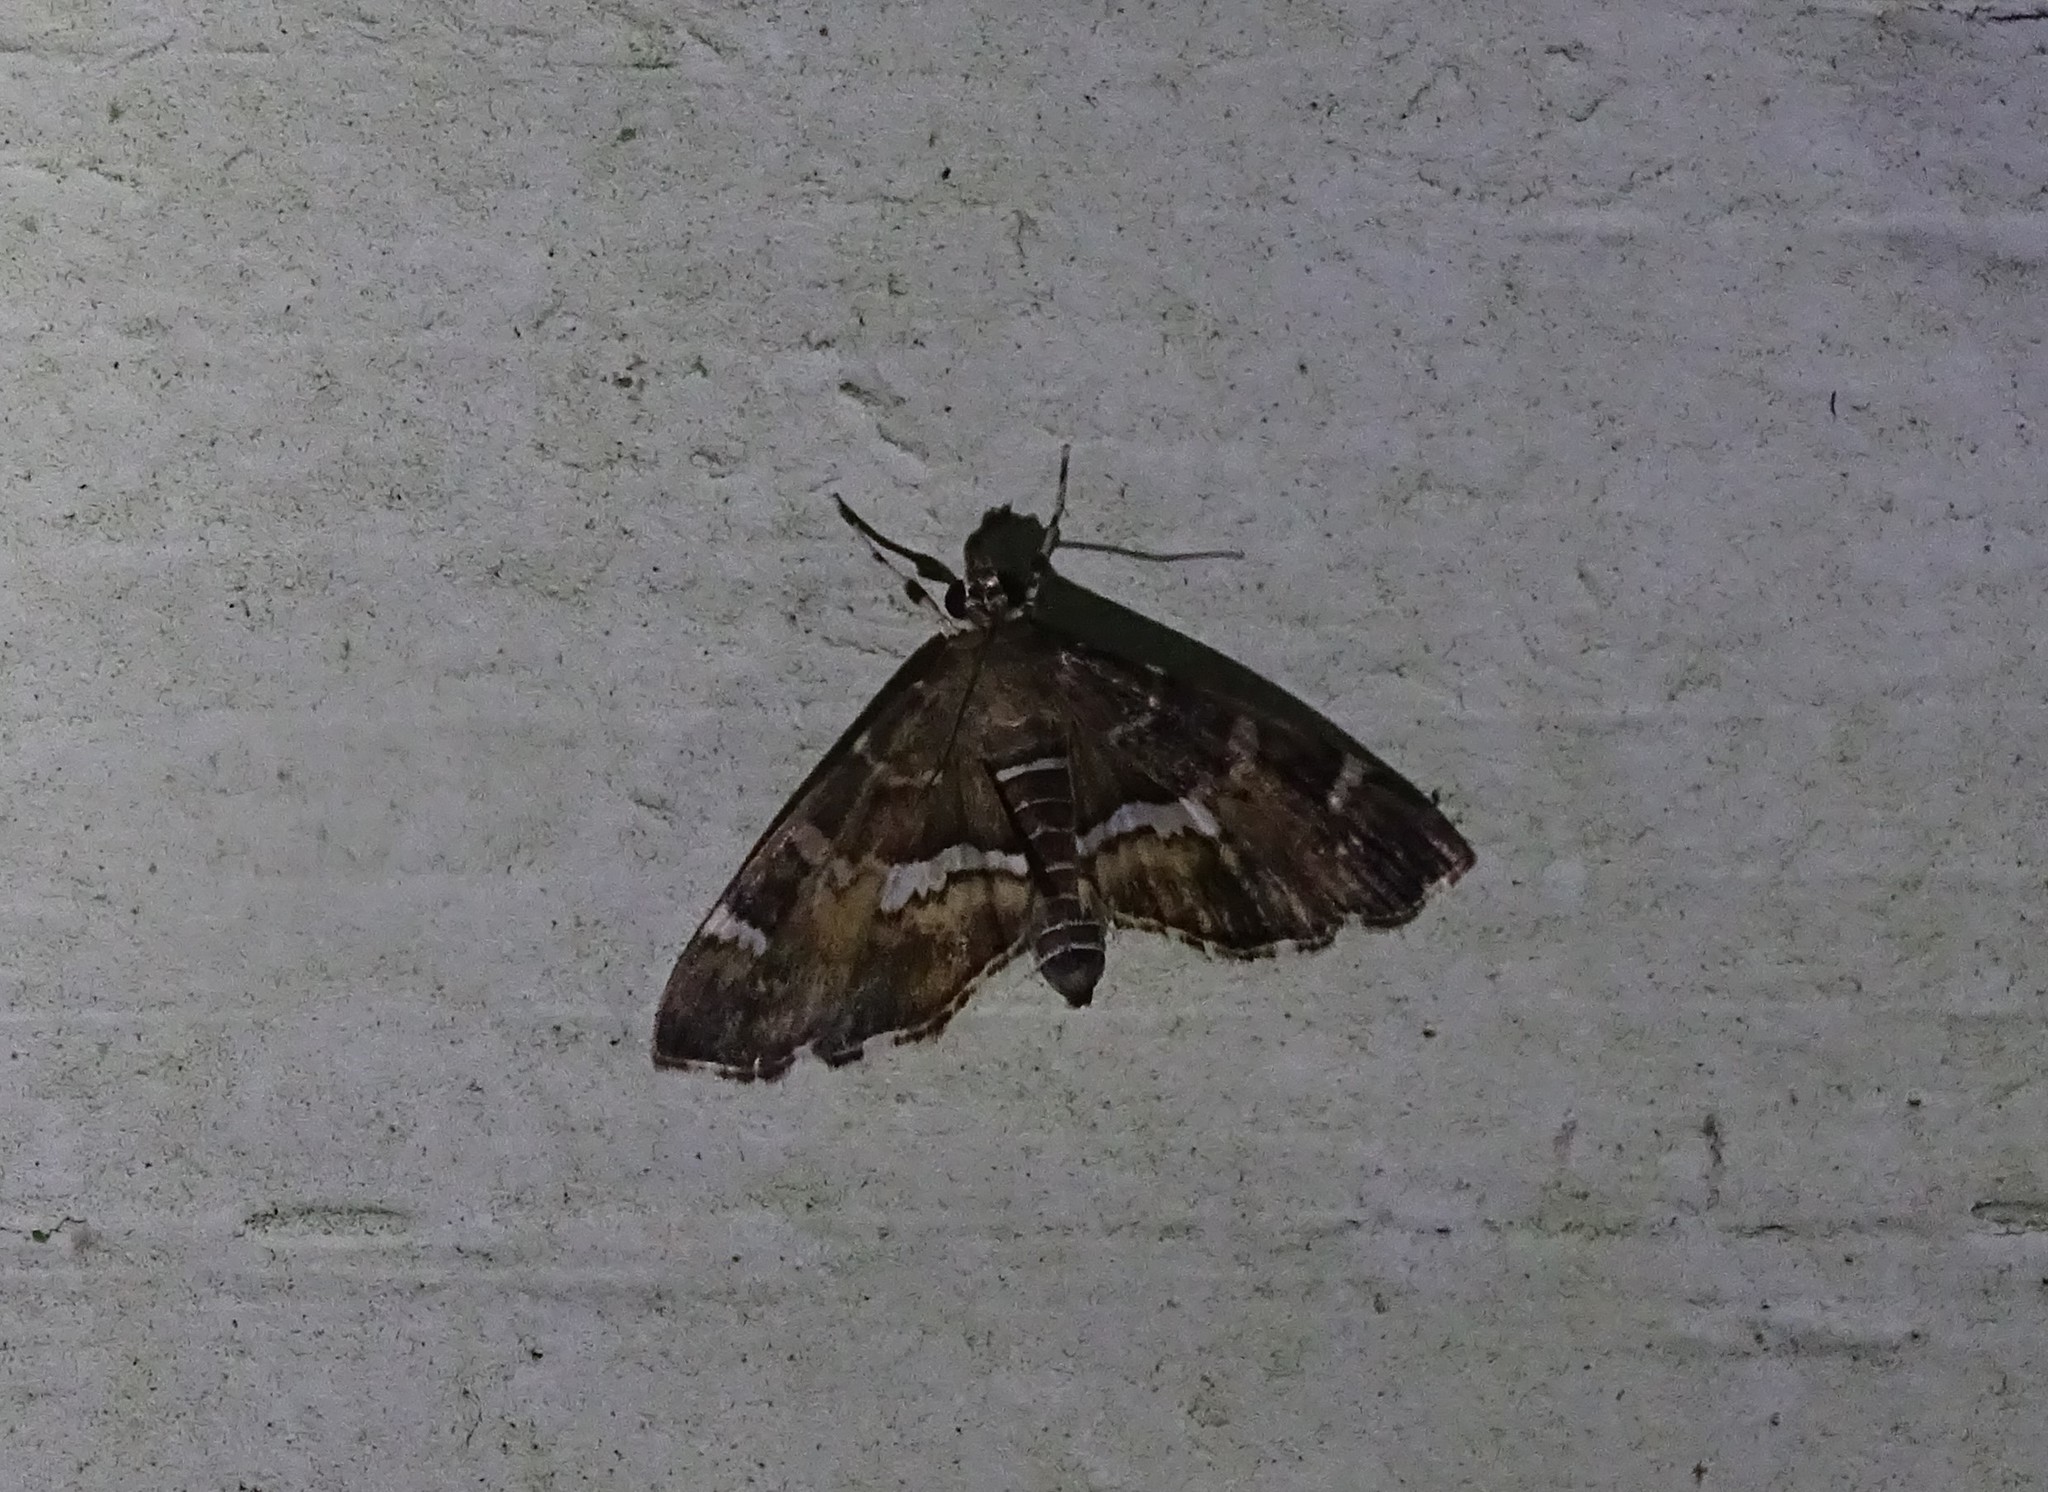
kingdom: Animalia
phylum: Arthropoda
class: Insecta
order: Lepidoptera
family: Crambidae
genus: Hymenia
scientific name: Hymenia perspectalis
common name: Spotted beet webworm
